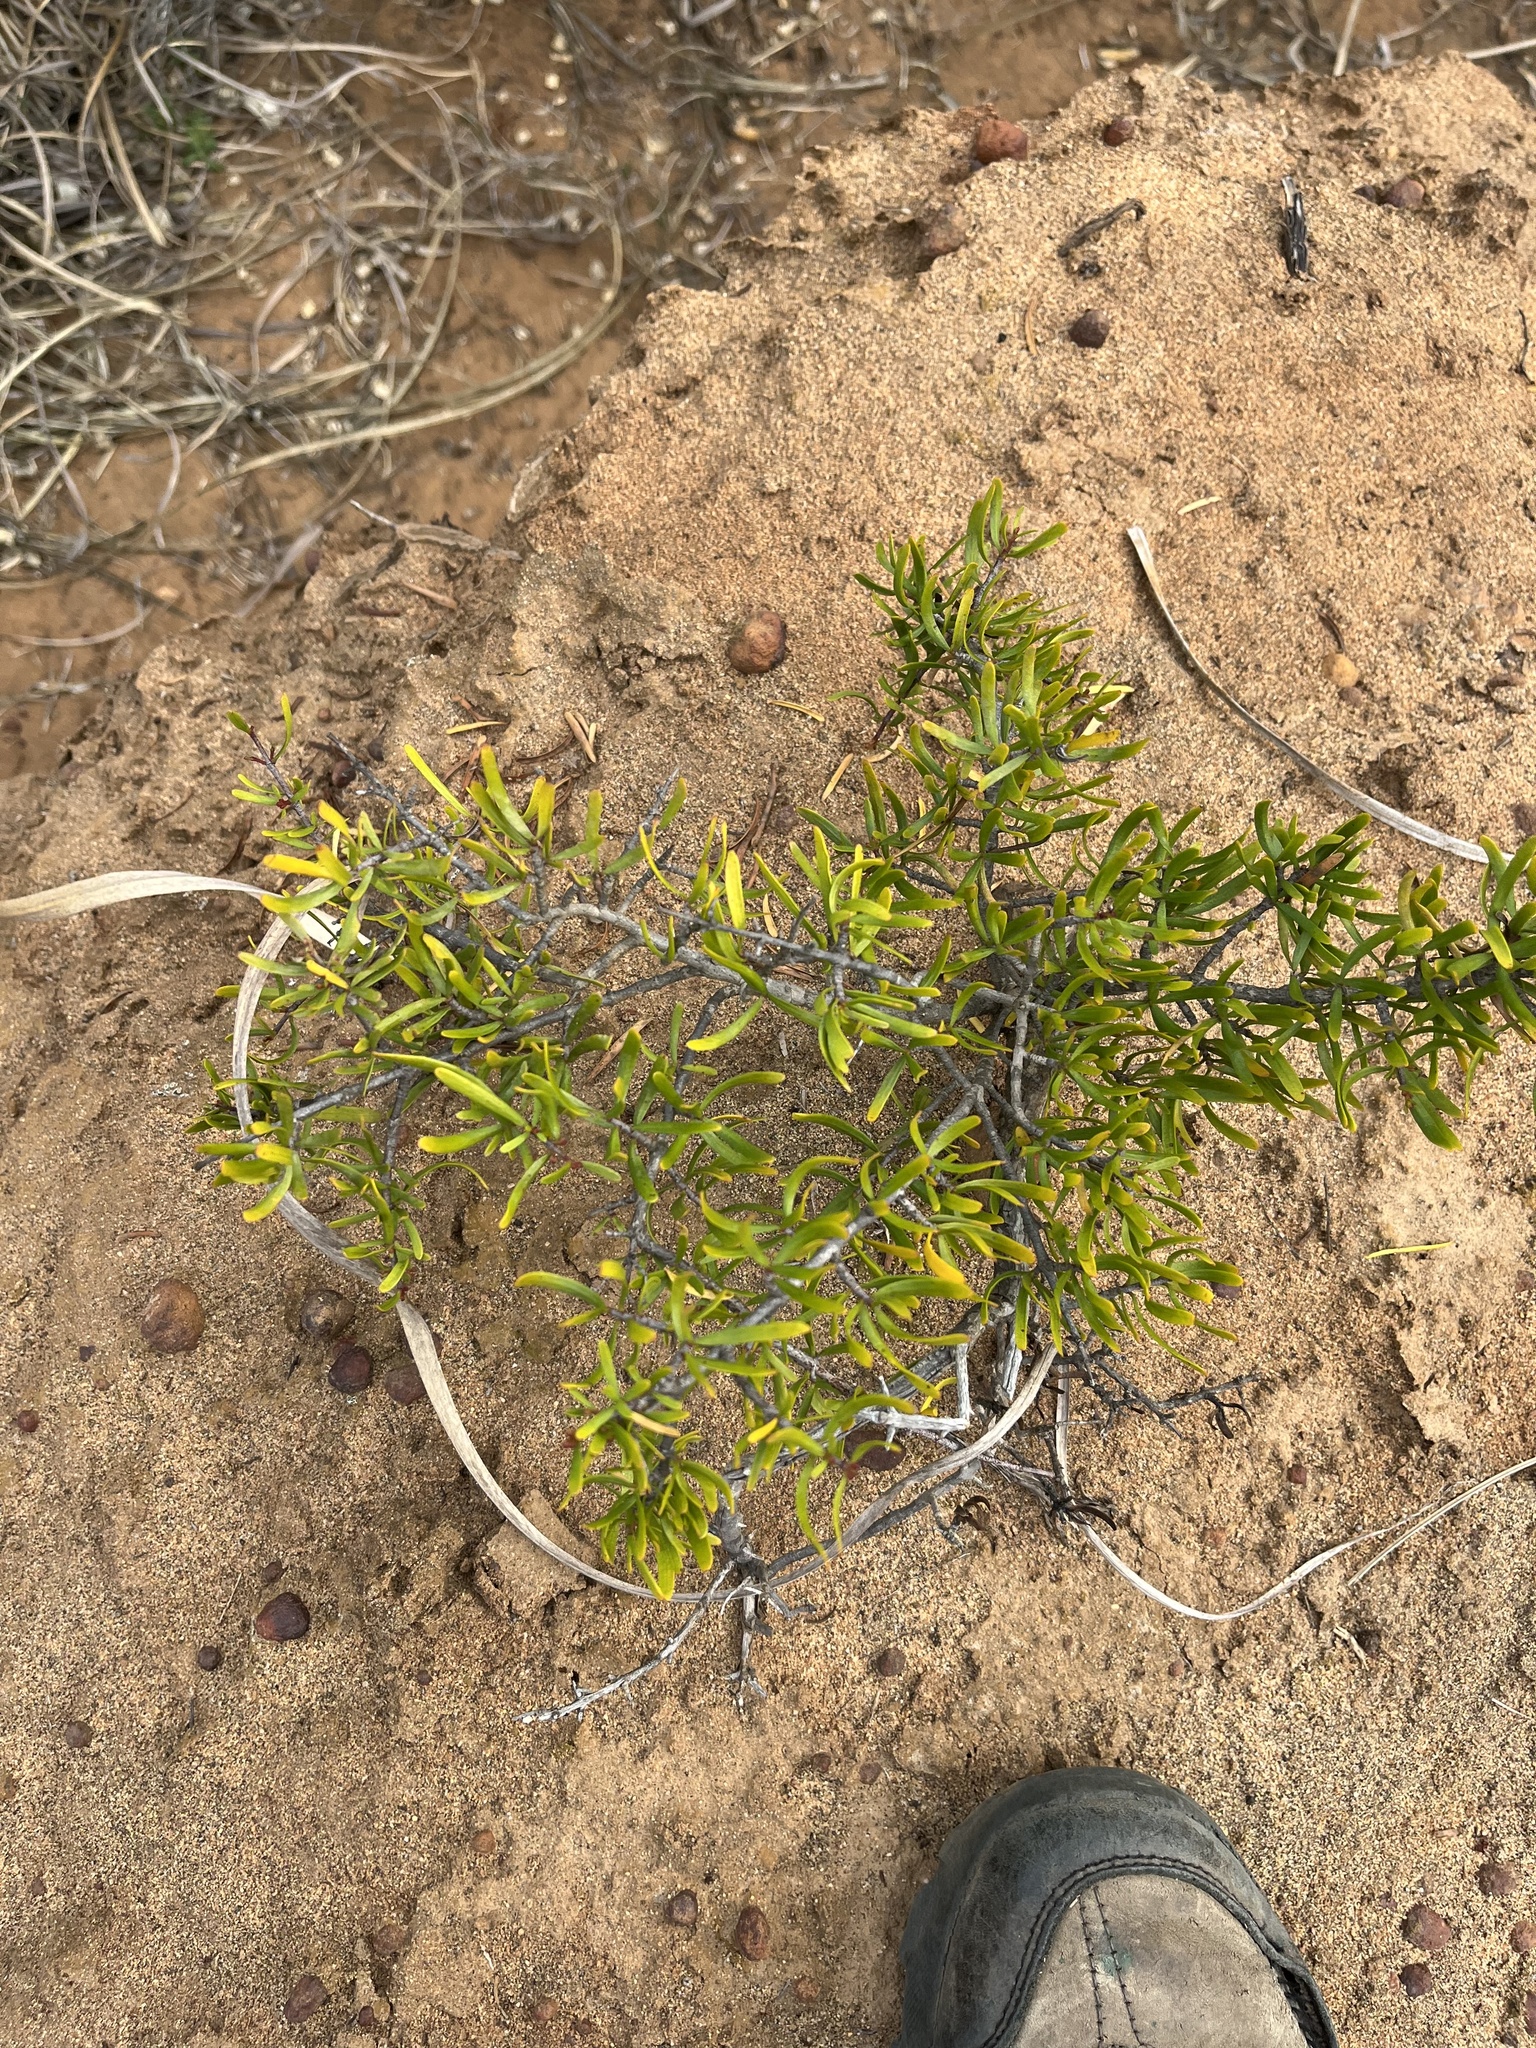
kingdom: Plantae
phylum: Tracheophyta
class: Magnoliopsida
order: Sapindales
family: Rutaceae
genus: Cneoridium
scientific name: Cneoridium dumosum
